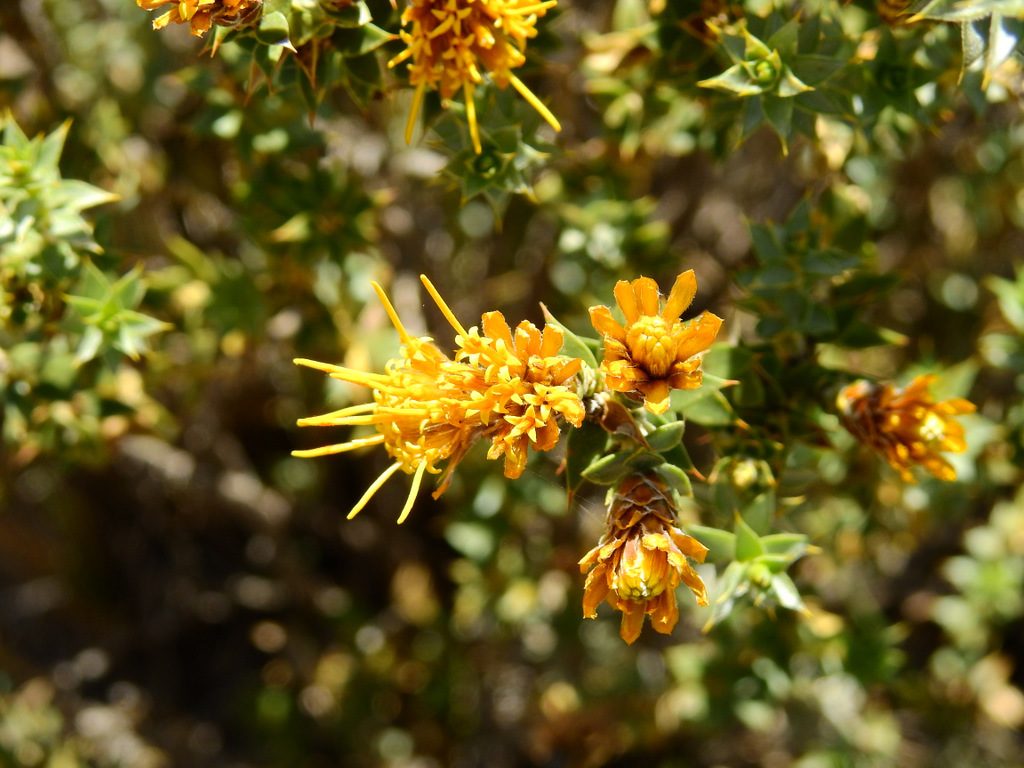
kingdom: Plantae
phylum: Tracheophyta
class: Magnoliopsida
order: Asterales
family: Asteraceae
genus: Chuquiraga
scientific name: Chuquiraga ruscifolia
